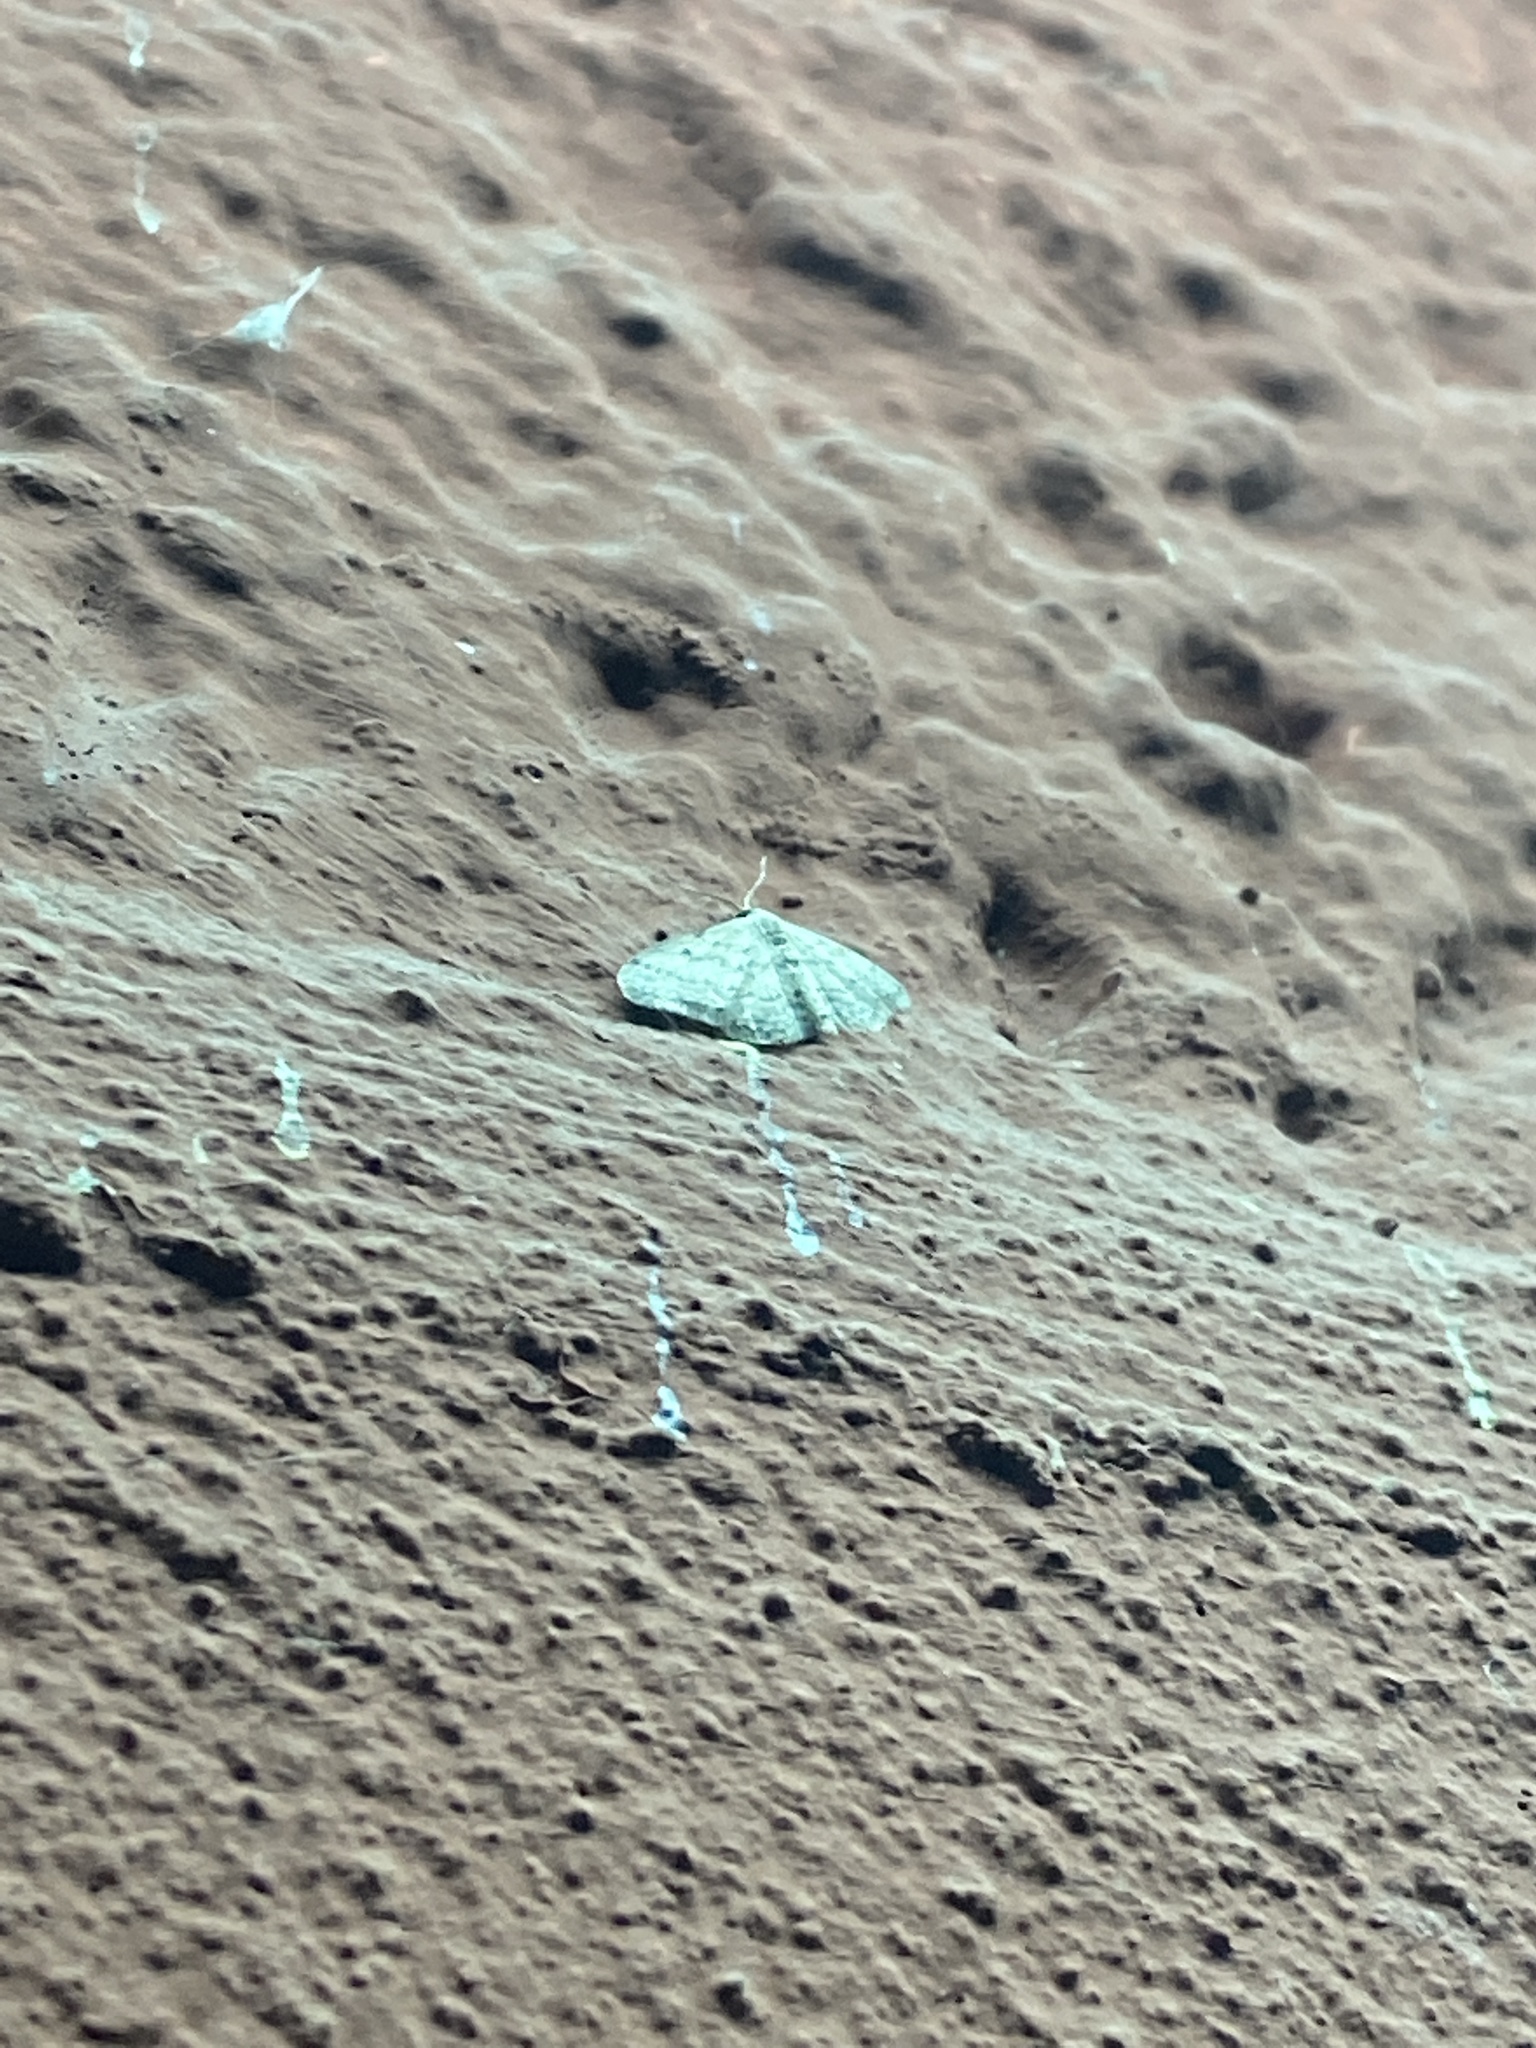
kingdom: Animalia
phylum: Arthropoda
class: Insecta
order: Lepidoptera
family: Geometridae
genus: Idaea
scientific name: Idaea seriata
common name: Small dusty wave
